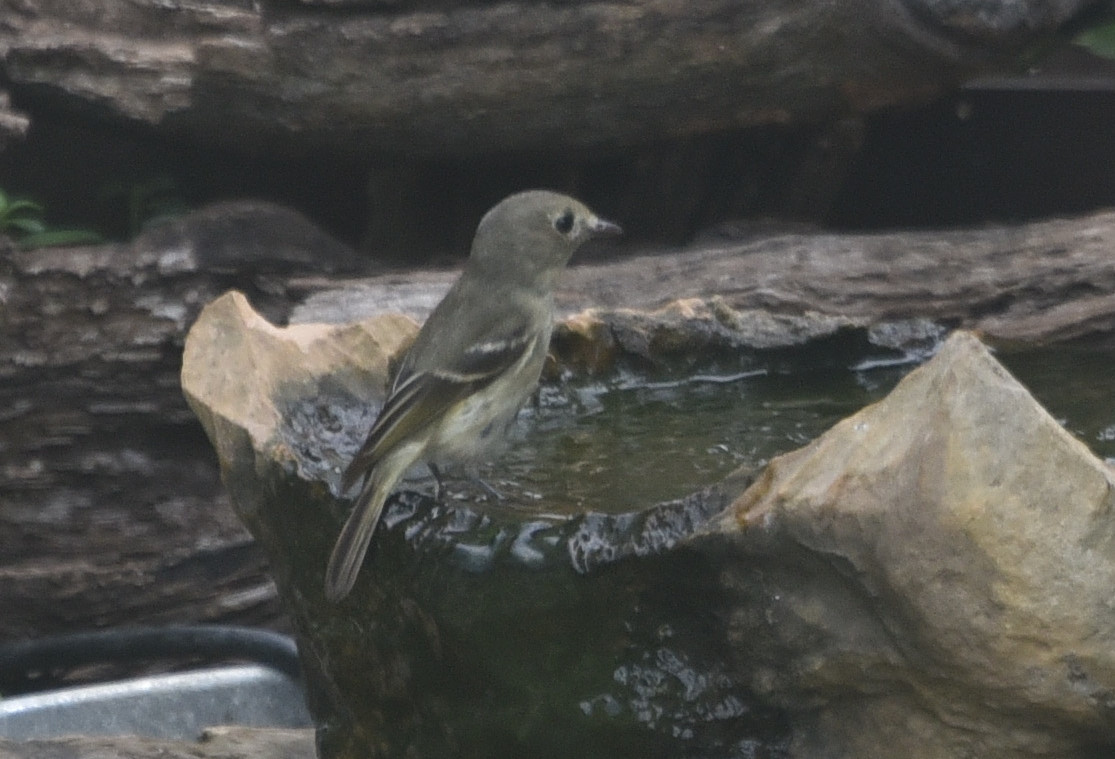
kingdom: Animalia
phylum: Chordata
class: Aves
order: Passeriformes
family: Vireonidae
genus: Vireo
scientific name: Vireo huttoni
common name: Hutton's vireo
